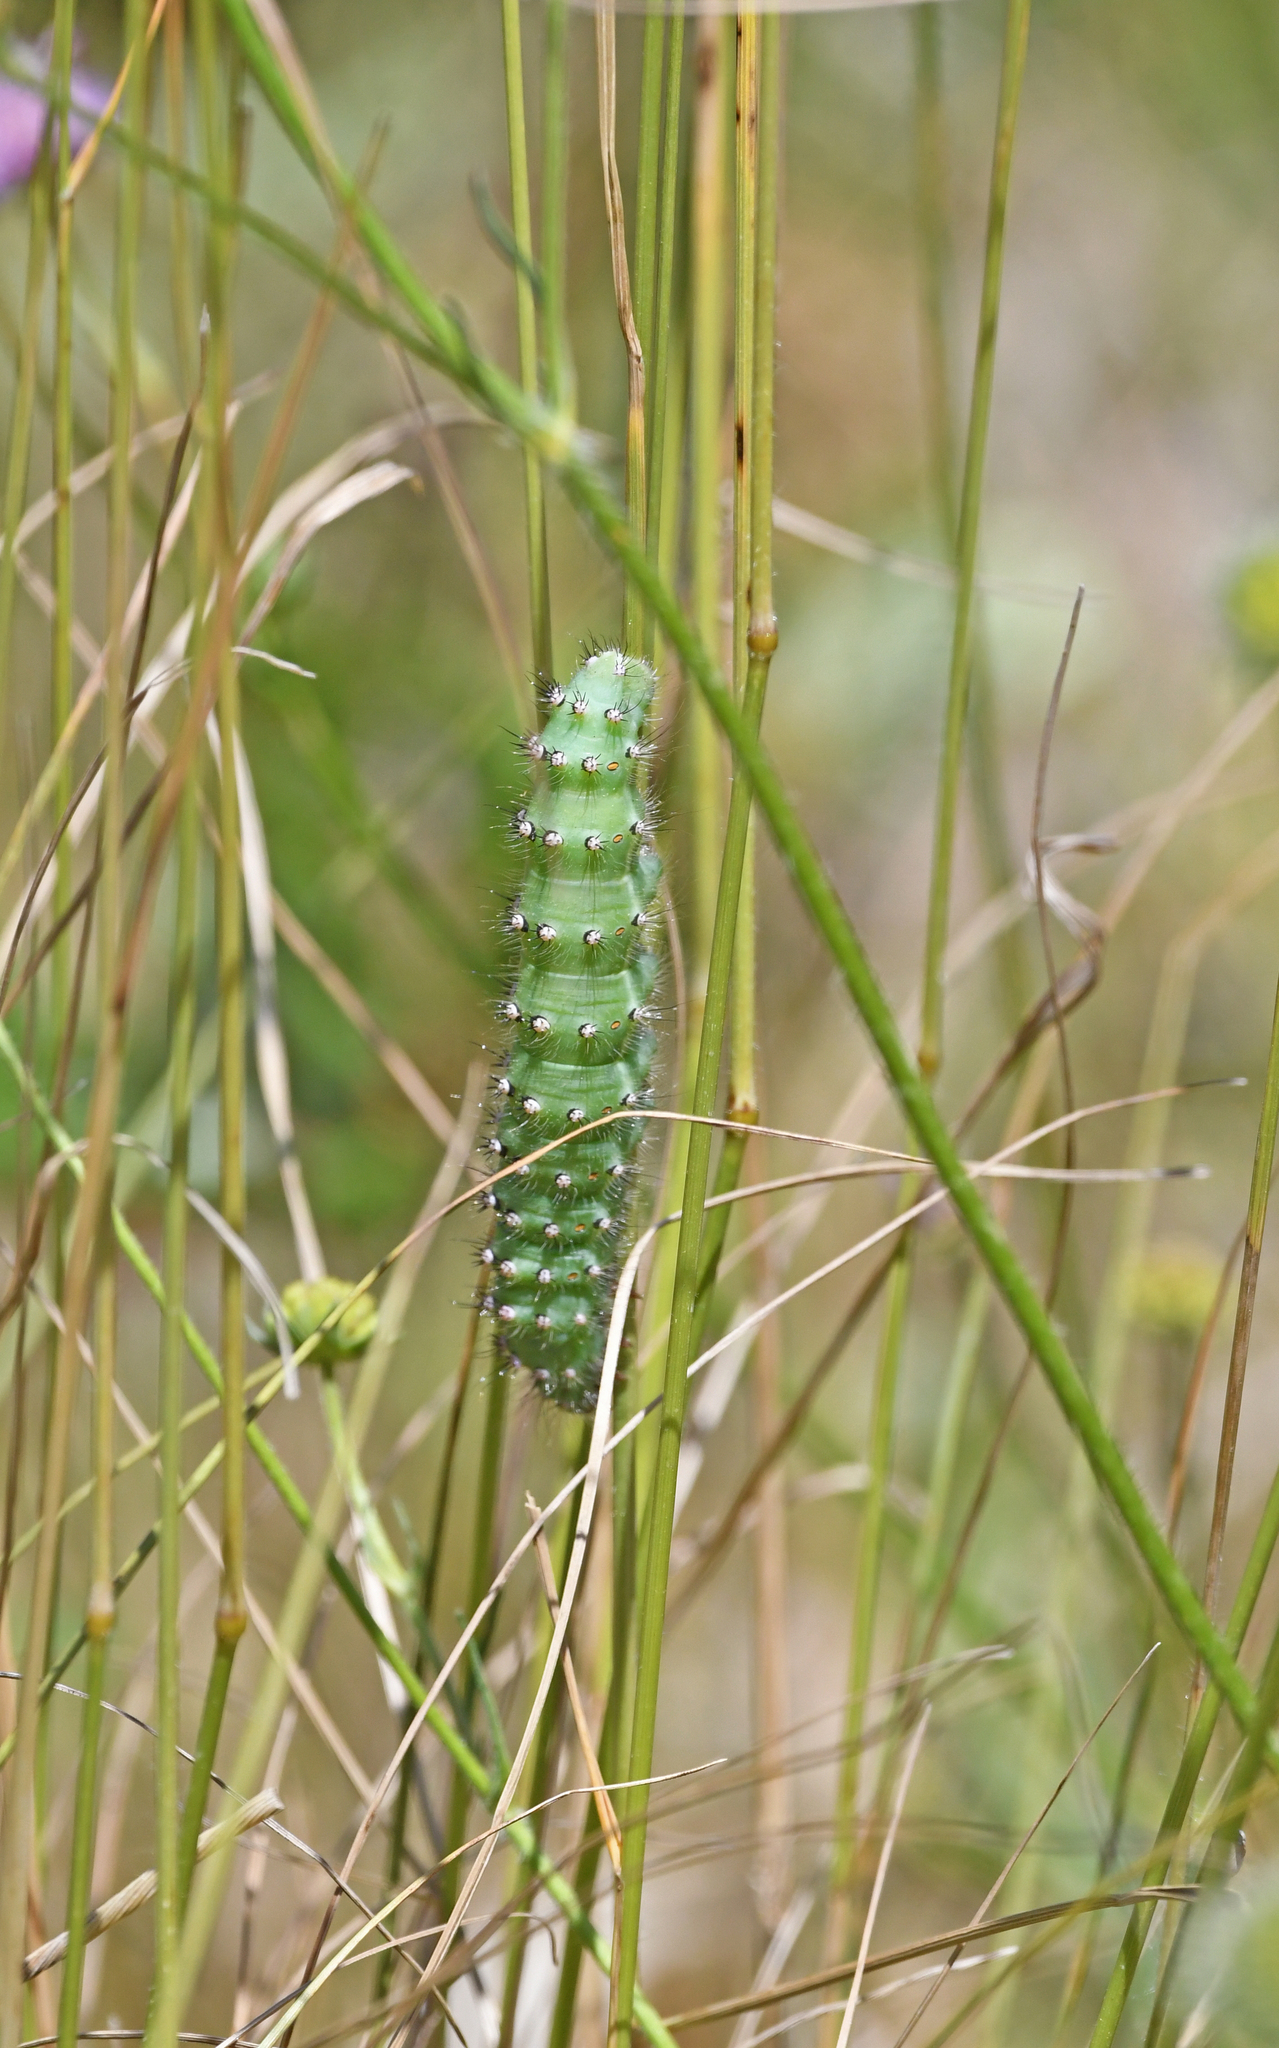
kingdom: Animalia
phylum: Arthropoda
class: Insecta
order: Lepidoptera
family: Saturniidae
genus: Saturnia
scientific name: Saturnia pavoniella
